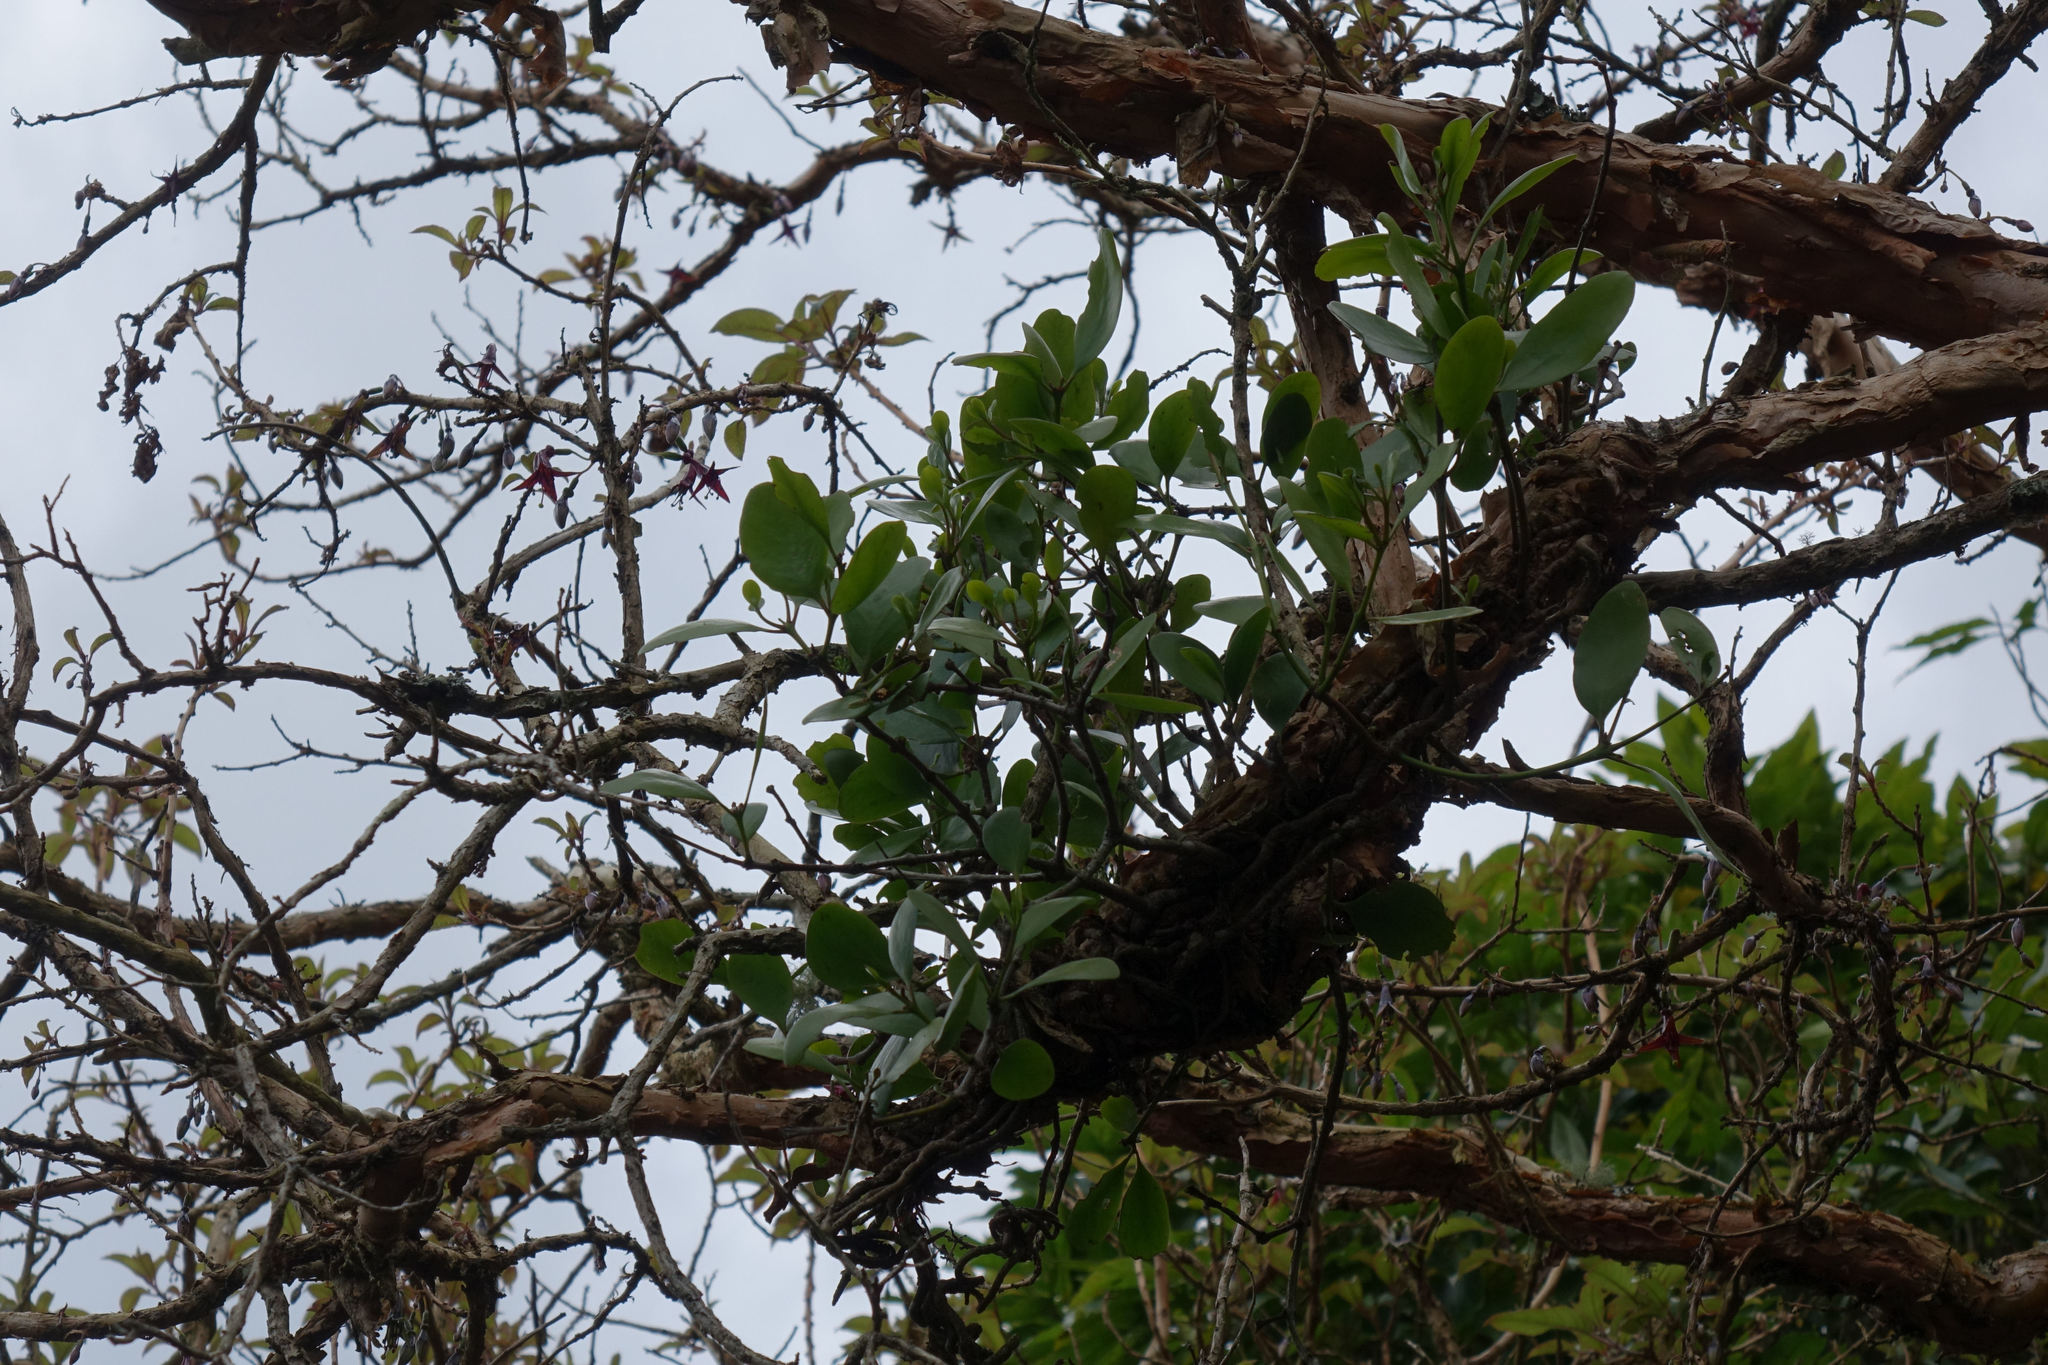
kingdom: Plantae
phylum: Tracheophyta
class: Magnoliopsida
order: Santalales
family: Loranthaceae
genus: Ileostylus
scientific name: Ileostylus micranthus
